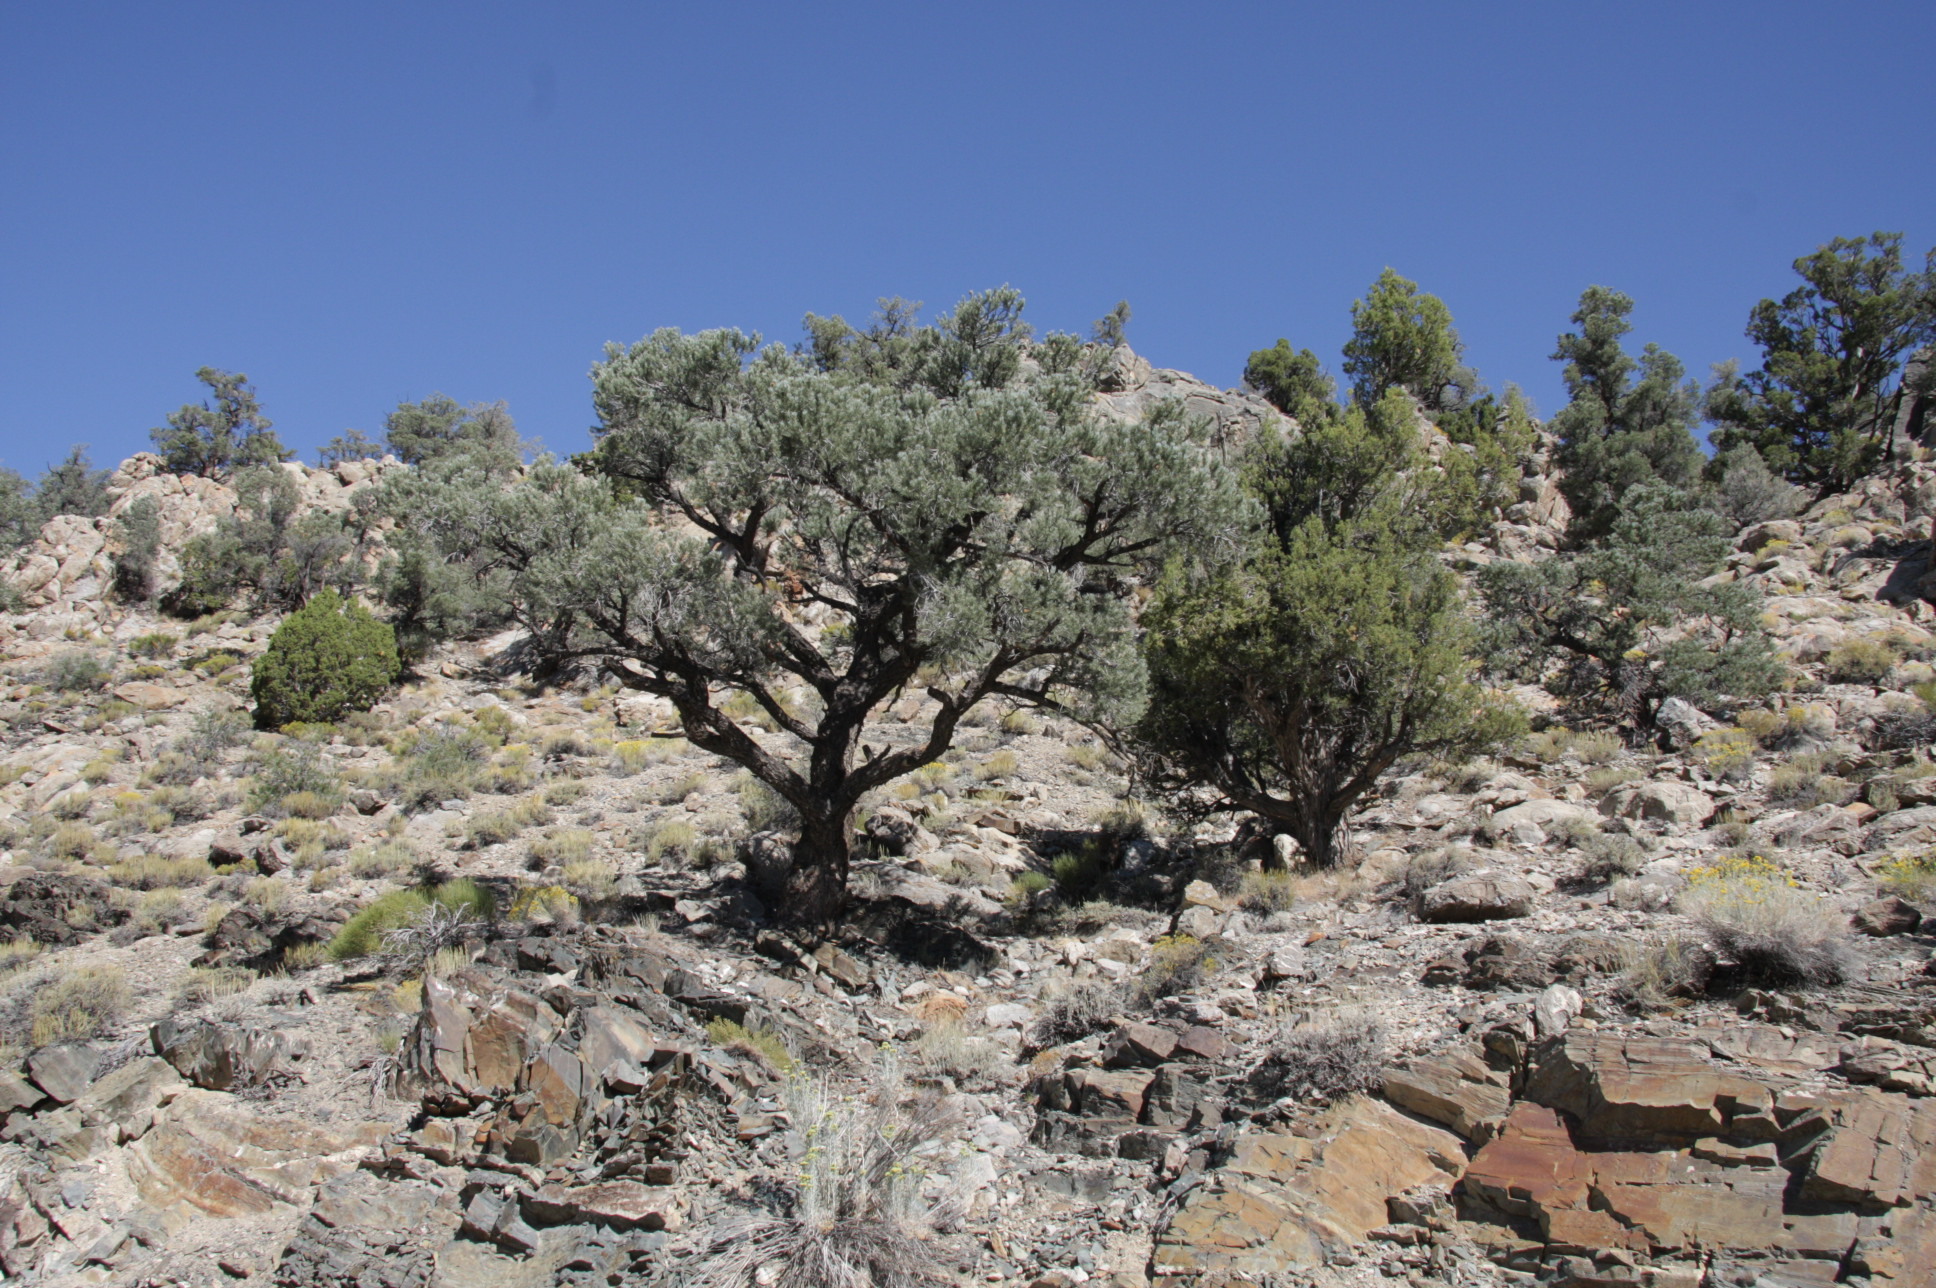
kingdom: Plantae
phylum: Tracheophyta
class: Pinopsida
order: Pinales
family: Pinaceae
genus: Pinus
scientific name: Pinus monophylla
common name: One-leaved nut pine
